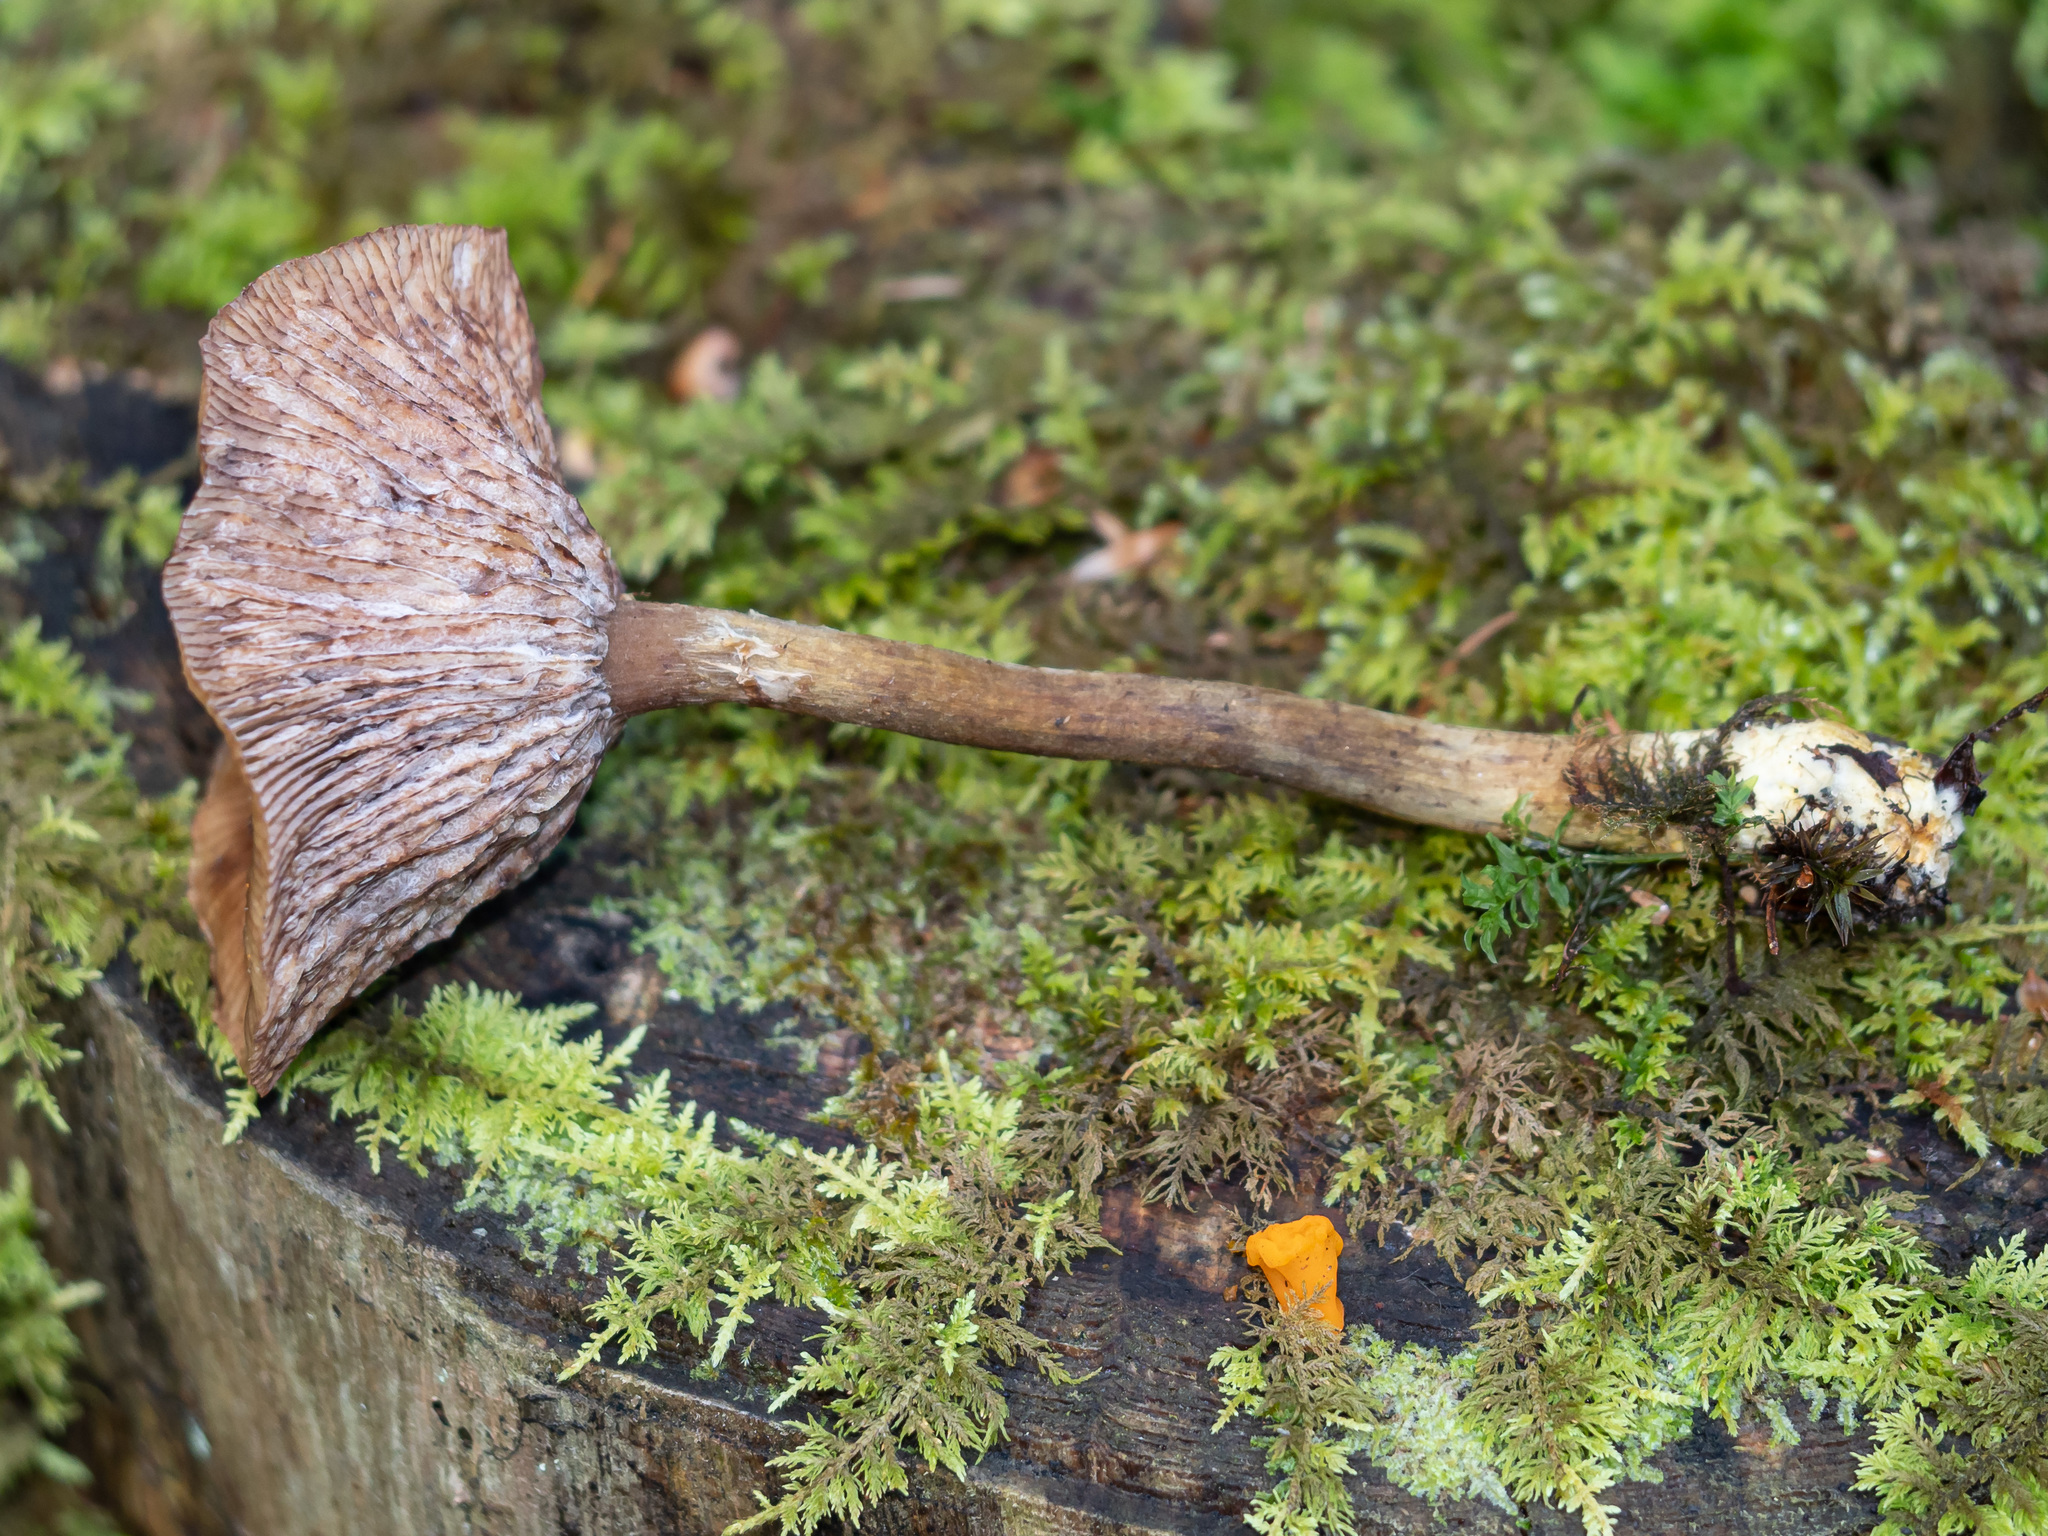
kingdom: Fungi
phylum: Basidiomycota
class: Agaricomycetes
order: Agaricales
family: Physalacriaceae
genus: Armillaria
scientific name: Armillaria ostoyae
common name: Dark honey fungus
